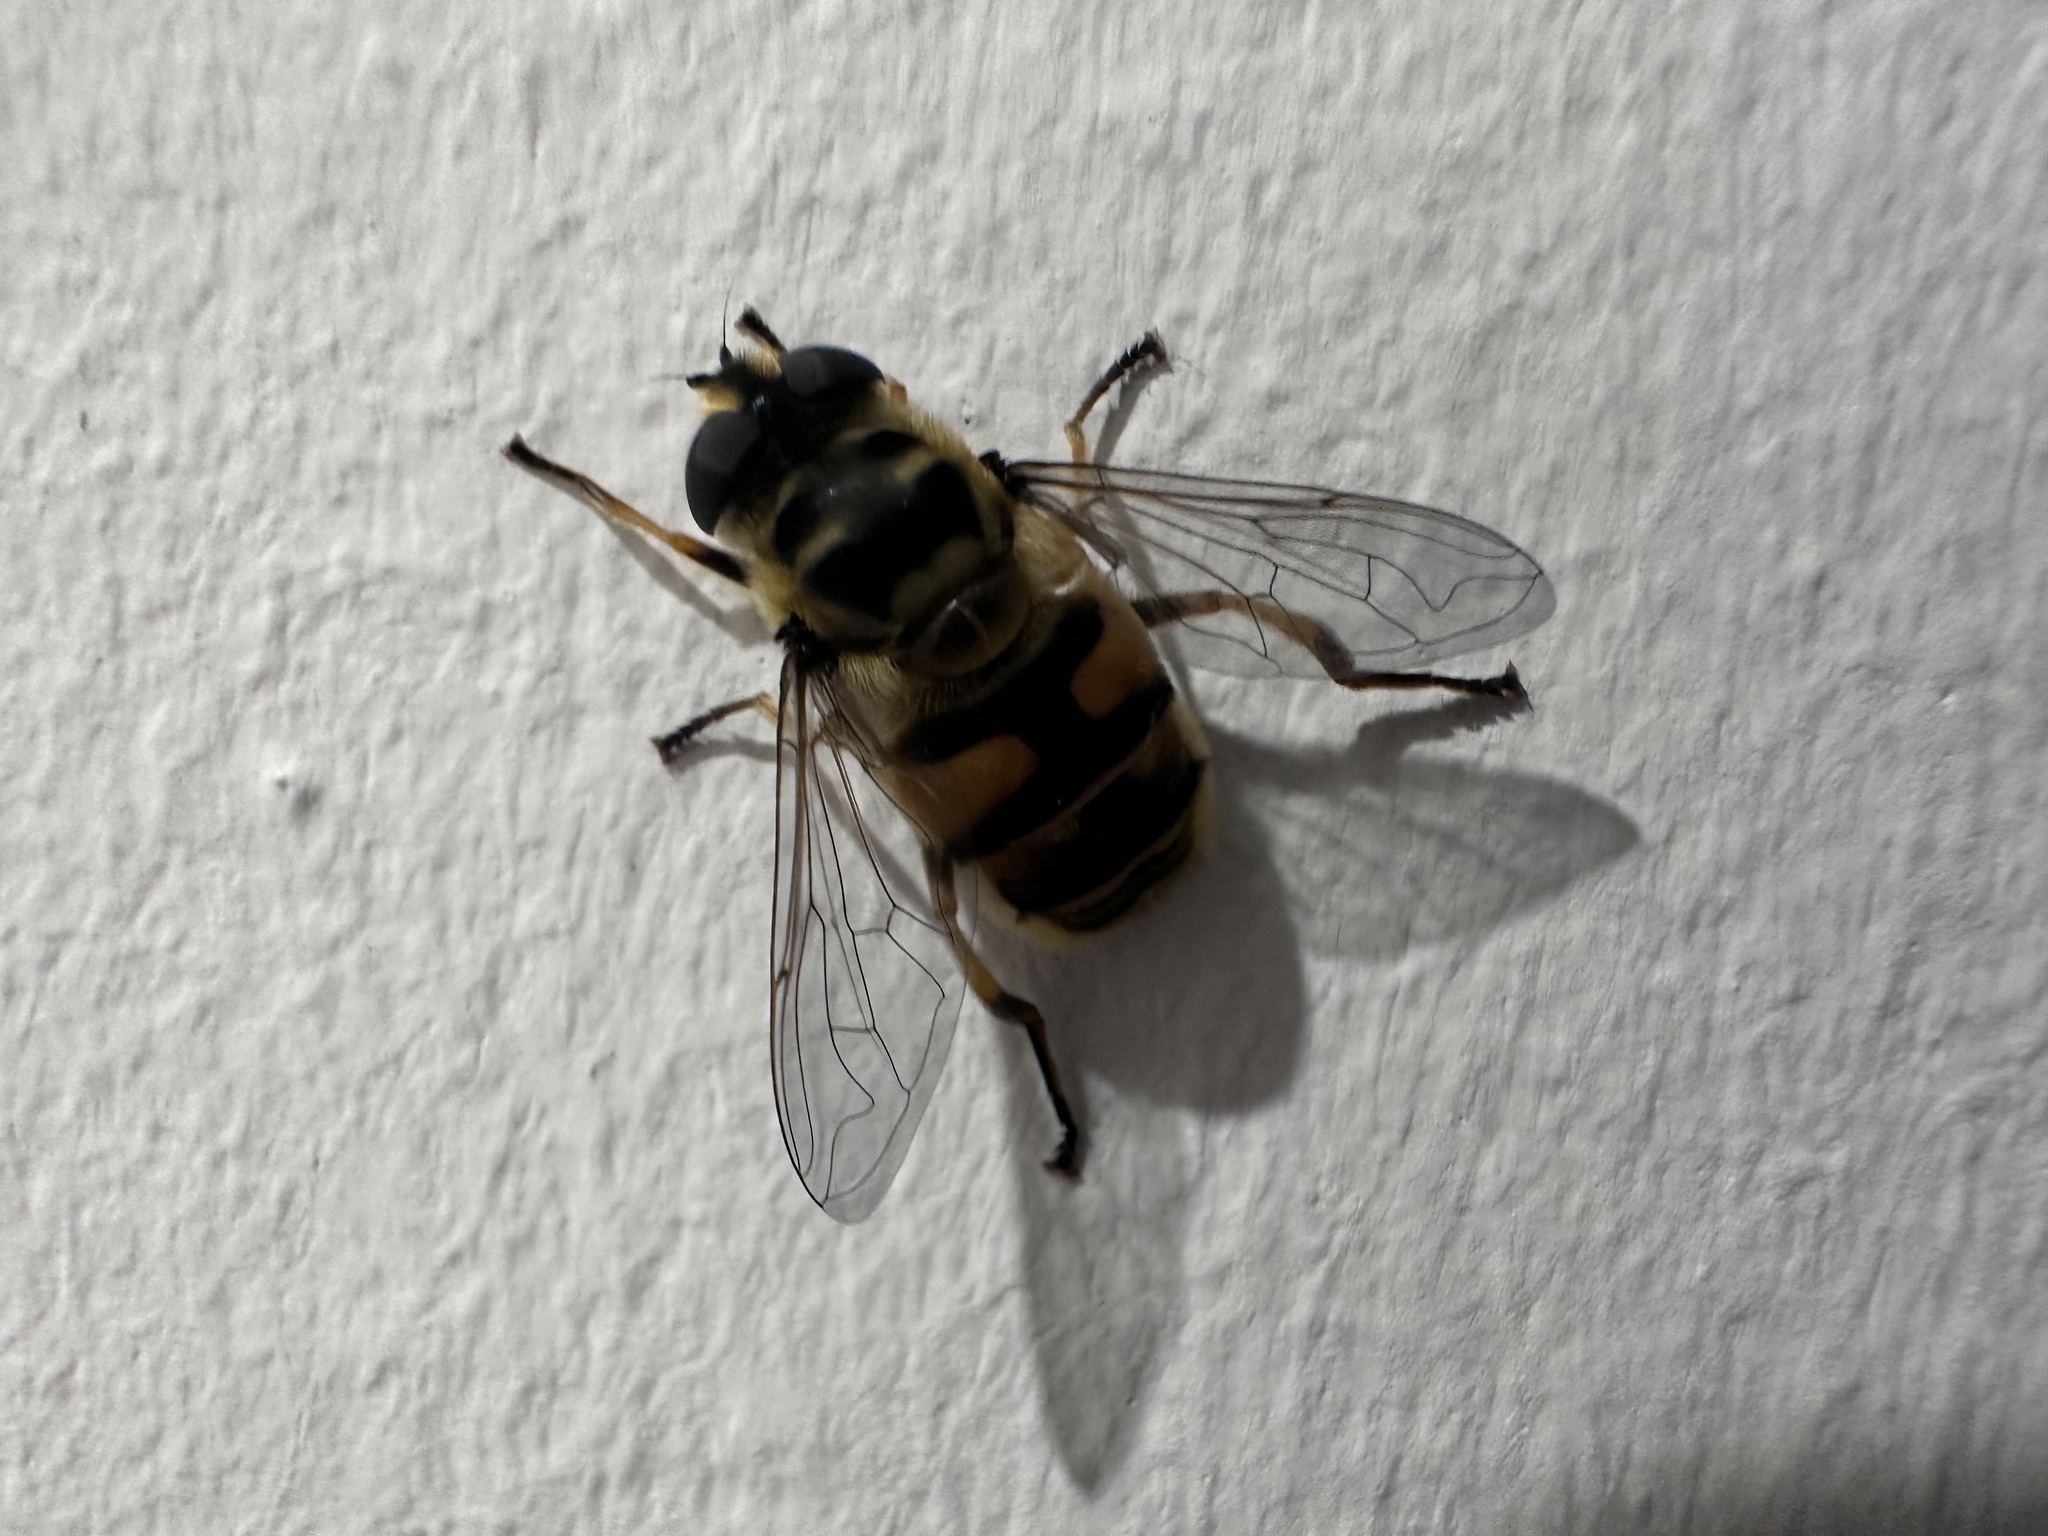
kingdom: Animalia
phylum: Arthropoda
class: Insecta
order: Diptera
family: Syrphidae
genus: Myathropa
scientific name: Myathropa florea
